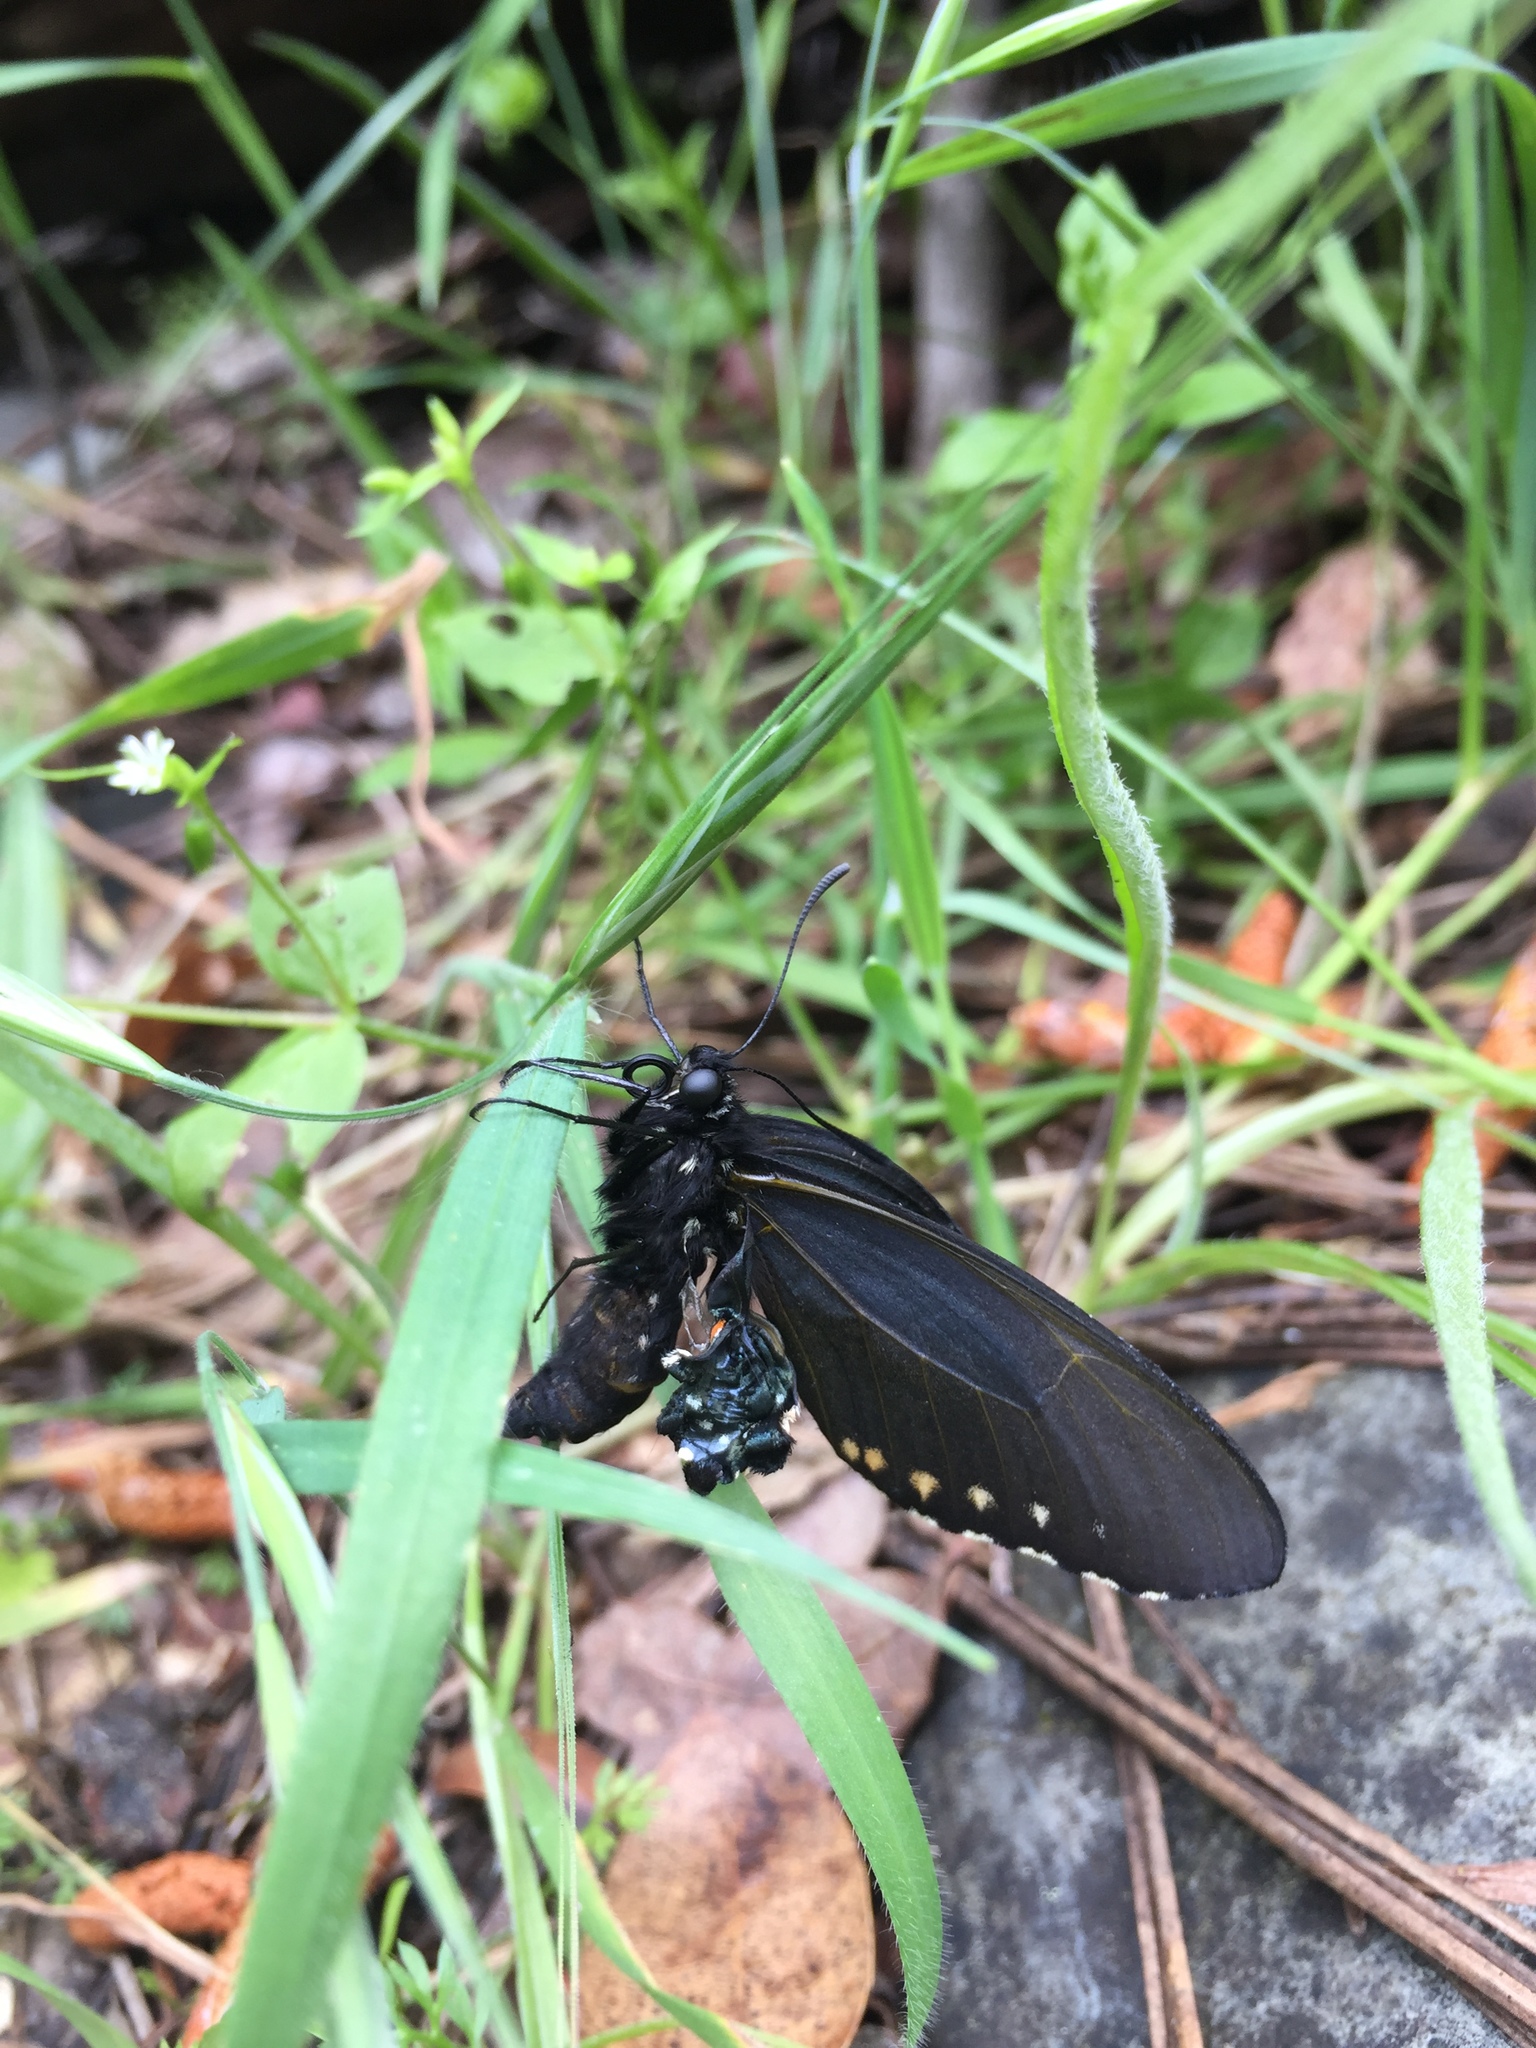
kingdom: Animalia
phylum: Arthropoda
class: Insecta
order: Lepidoptera
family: Papilionidae
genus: Battus
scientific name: Battus philenor
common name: Pipevine swallowtail
